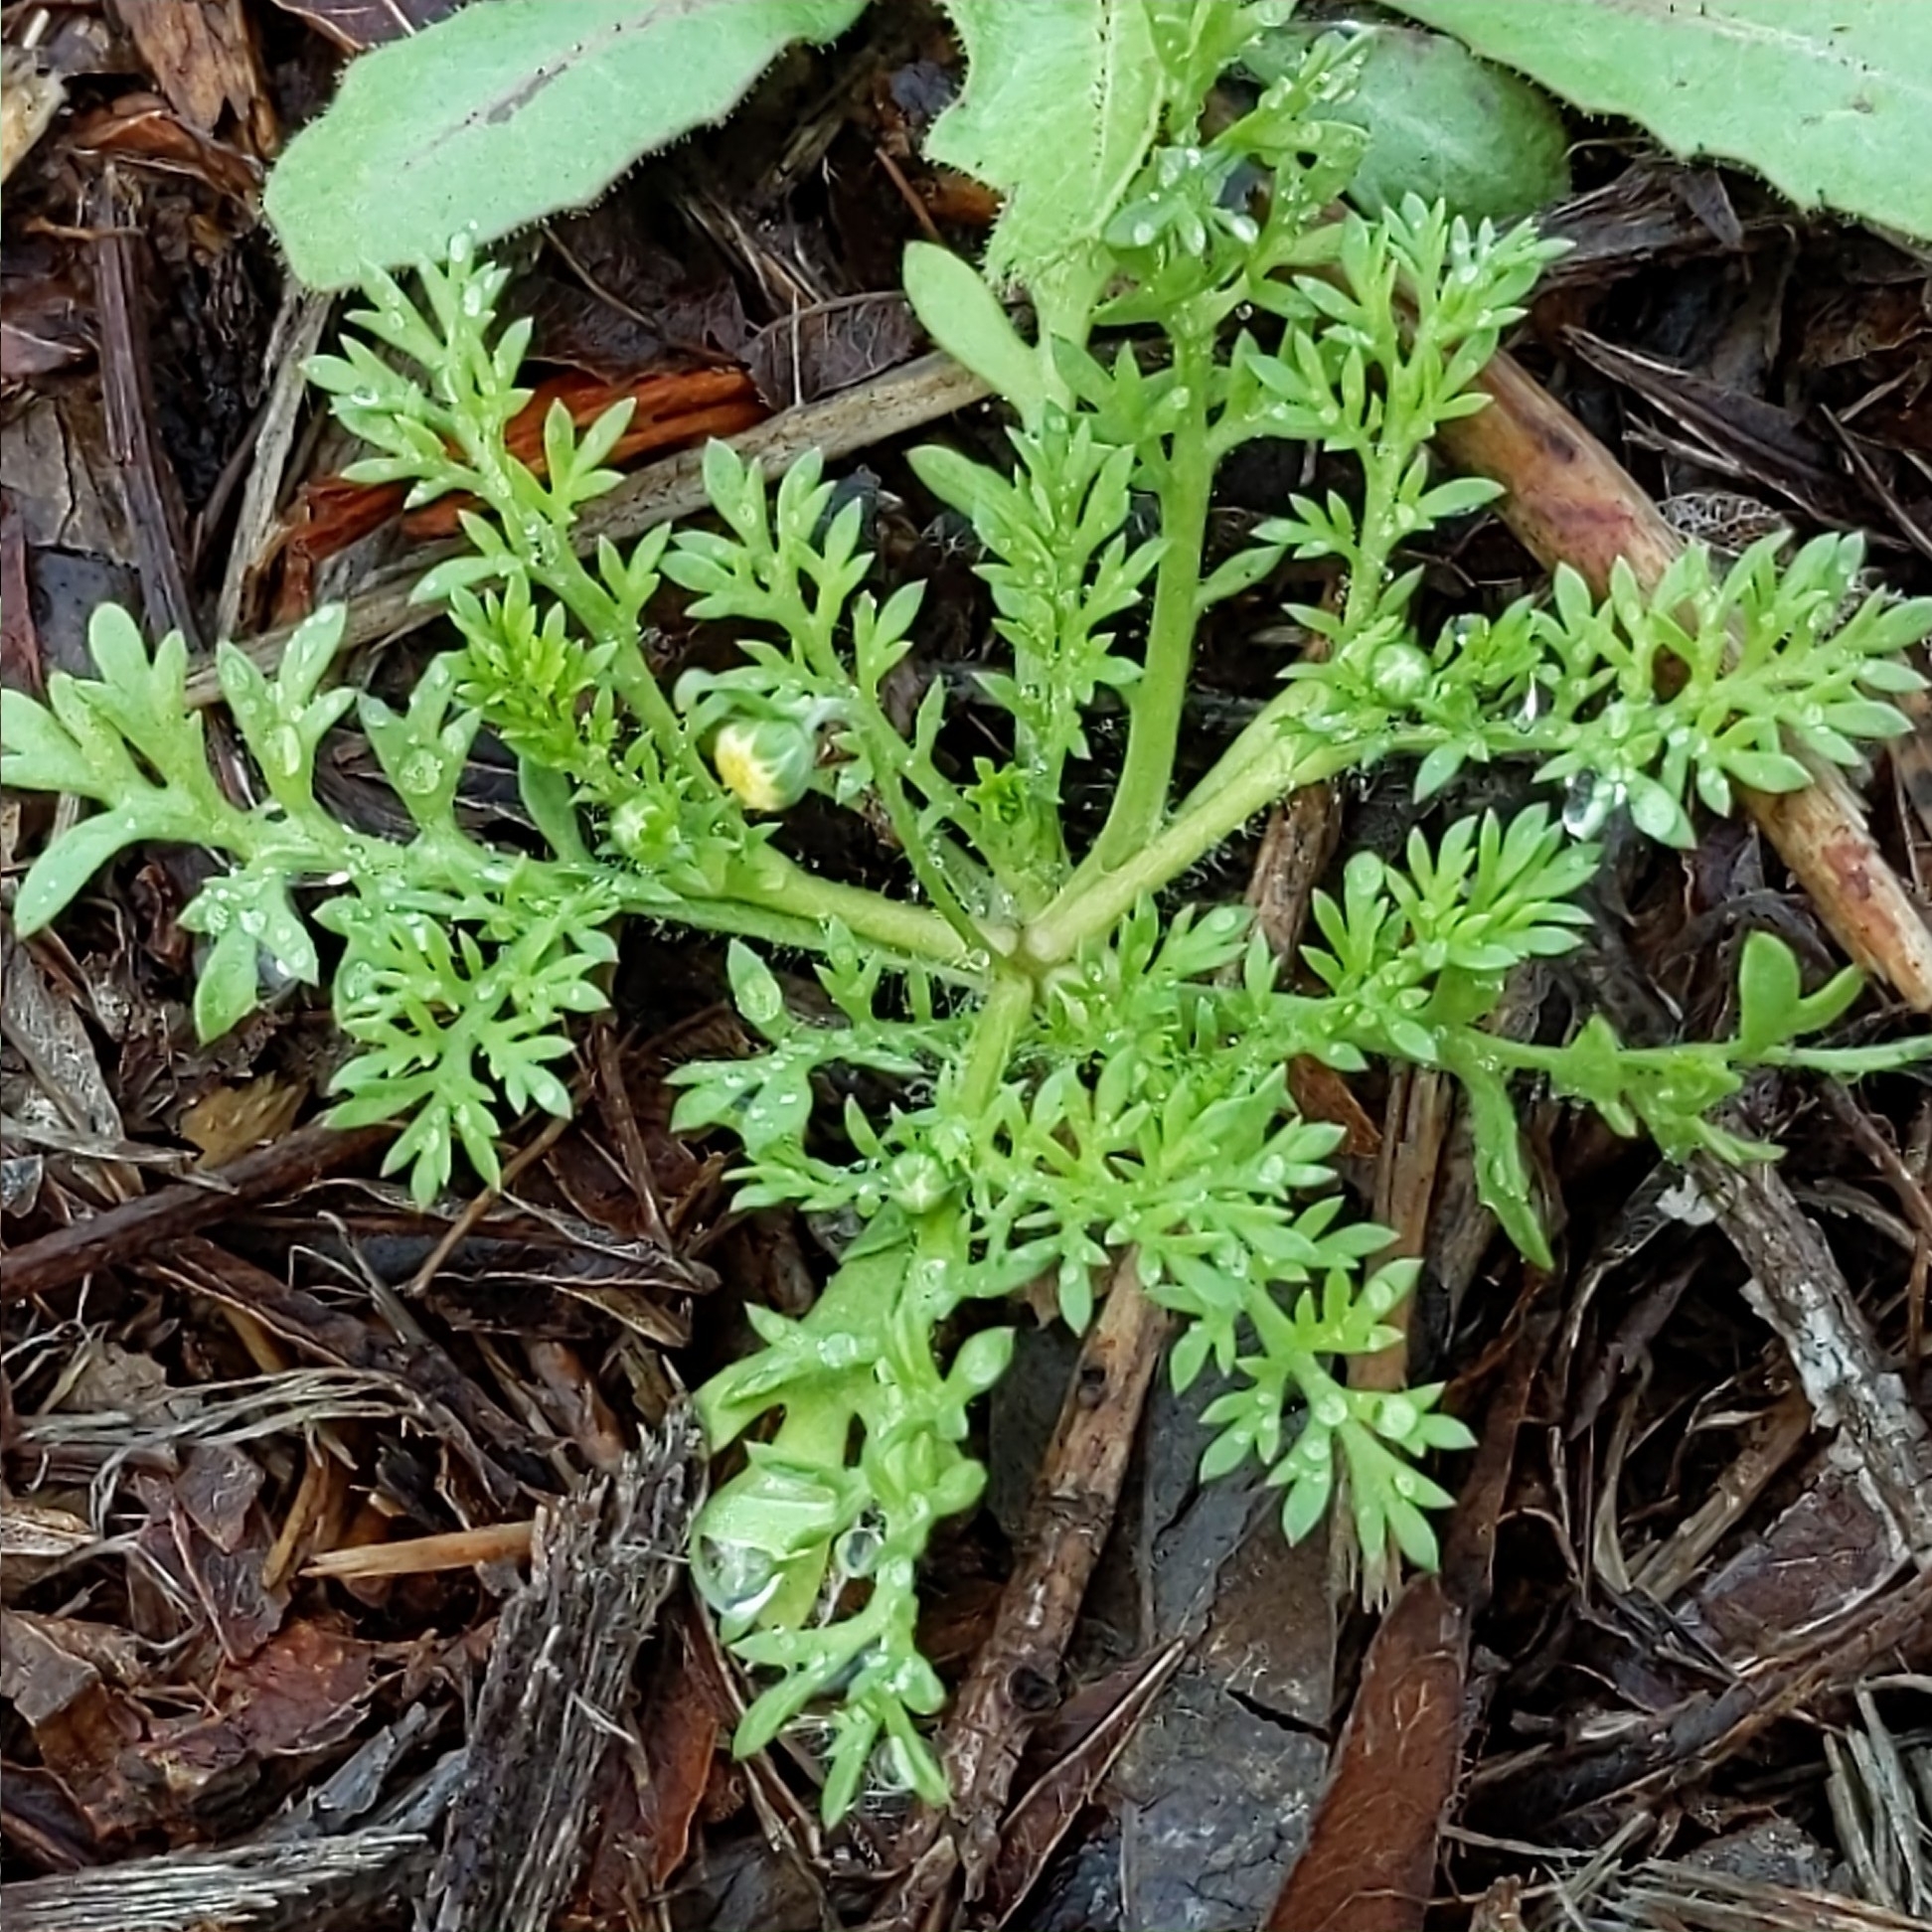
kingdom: Plantae
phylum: Tracheophyta
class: Magnoliopsida
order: Asterales
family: Asteraceae
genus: Cotula
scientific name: Cotula australis
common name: Australian waterbuttons
